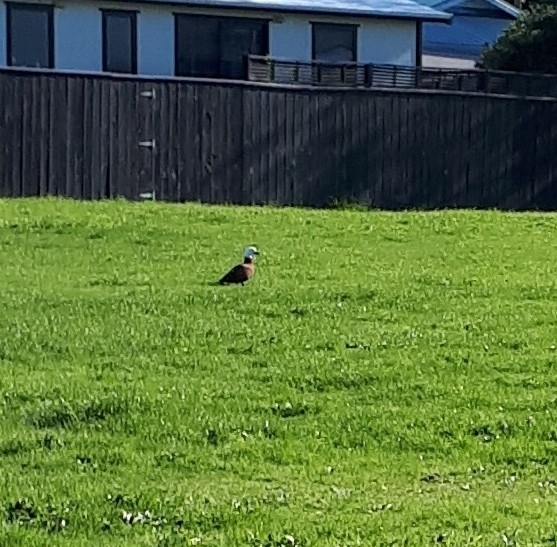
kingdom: Animalia
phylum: Chordata
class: Aves
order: Anseriformes
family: Anatidae
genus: Tadorna
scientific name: Tadorna variegata
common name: Paradise shelduck
